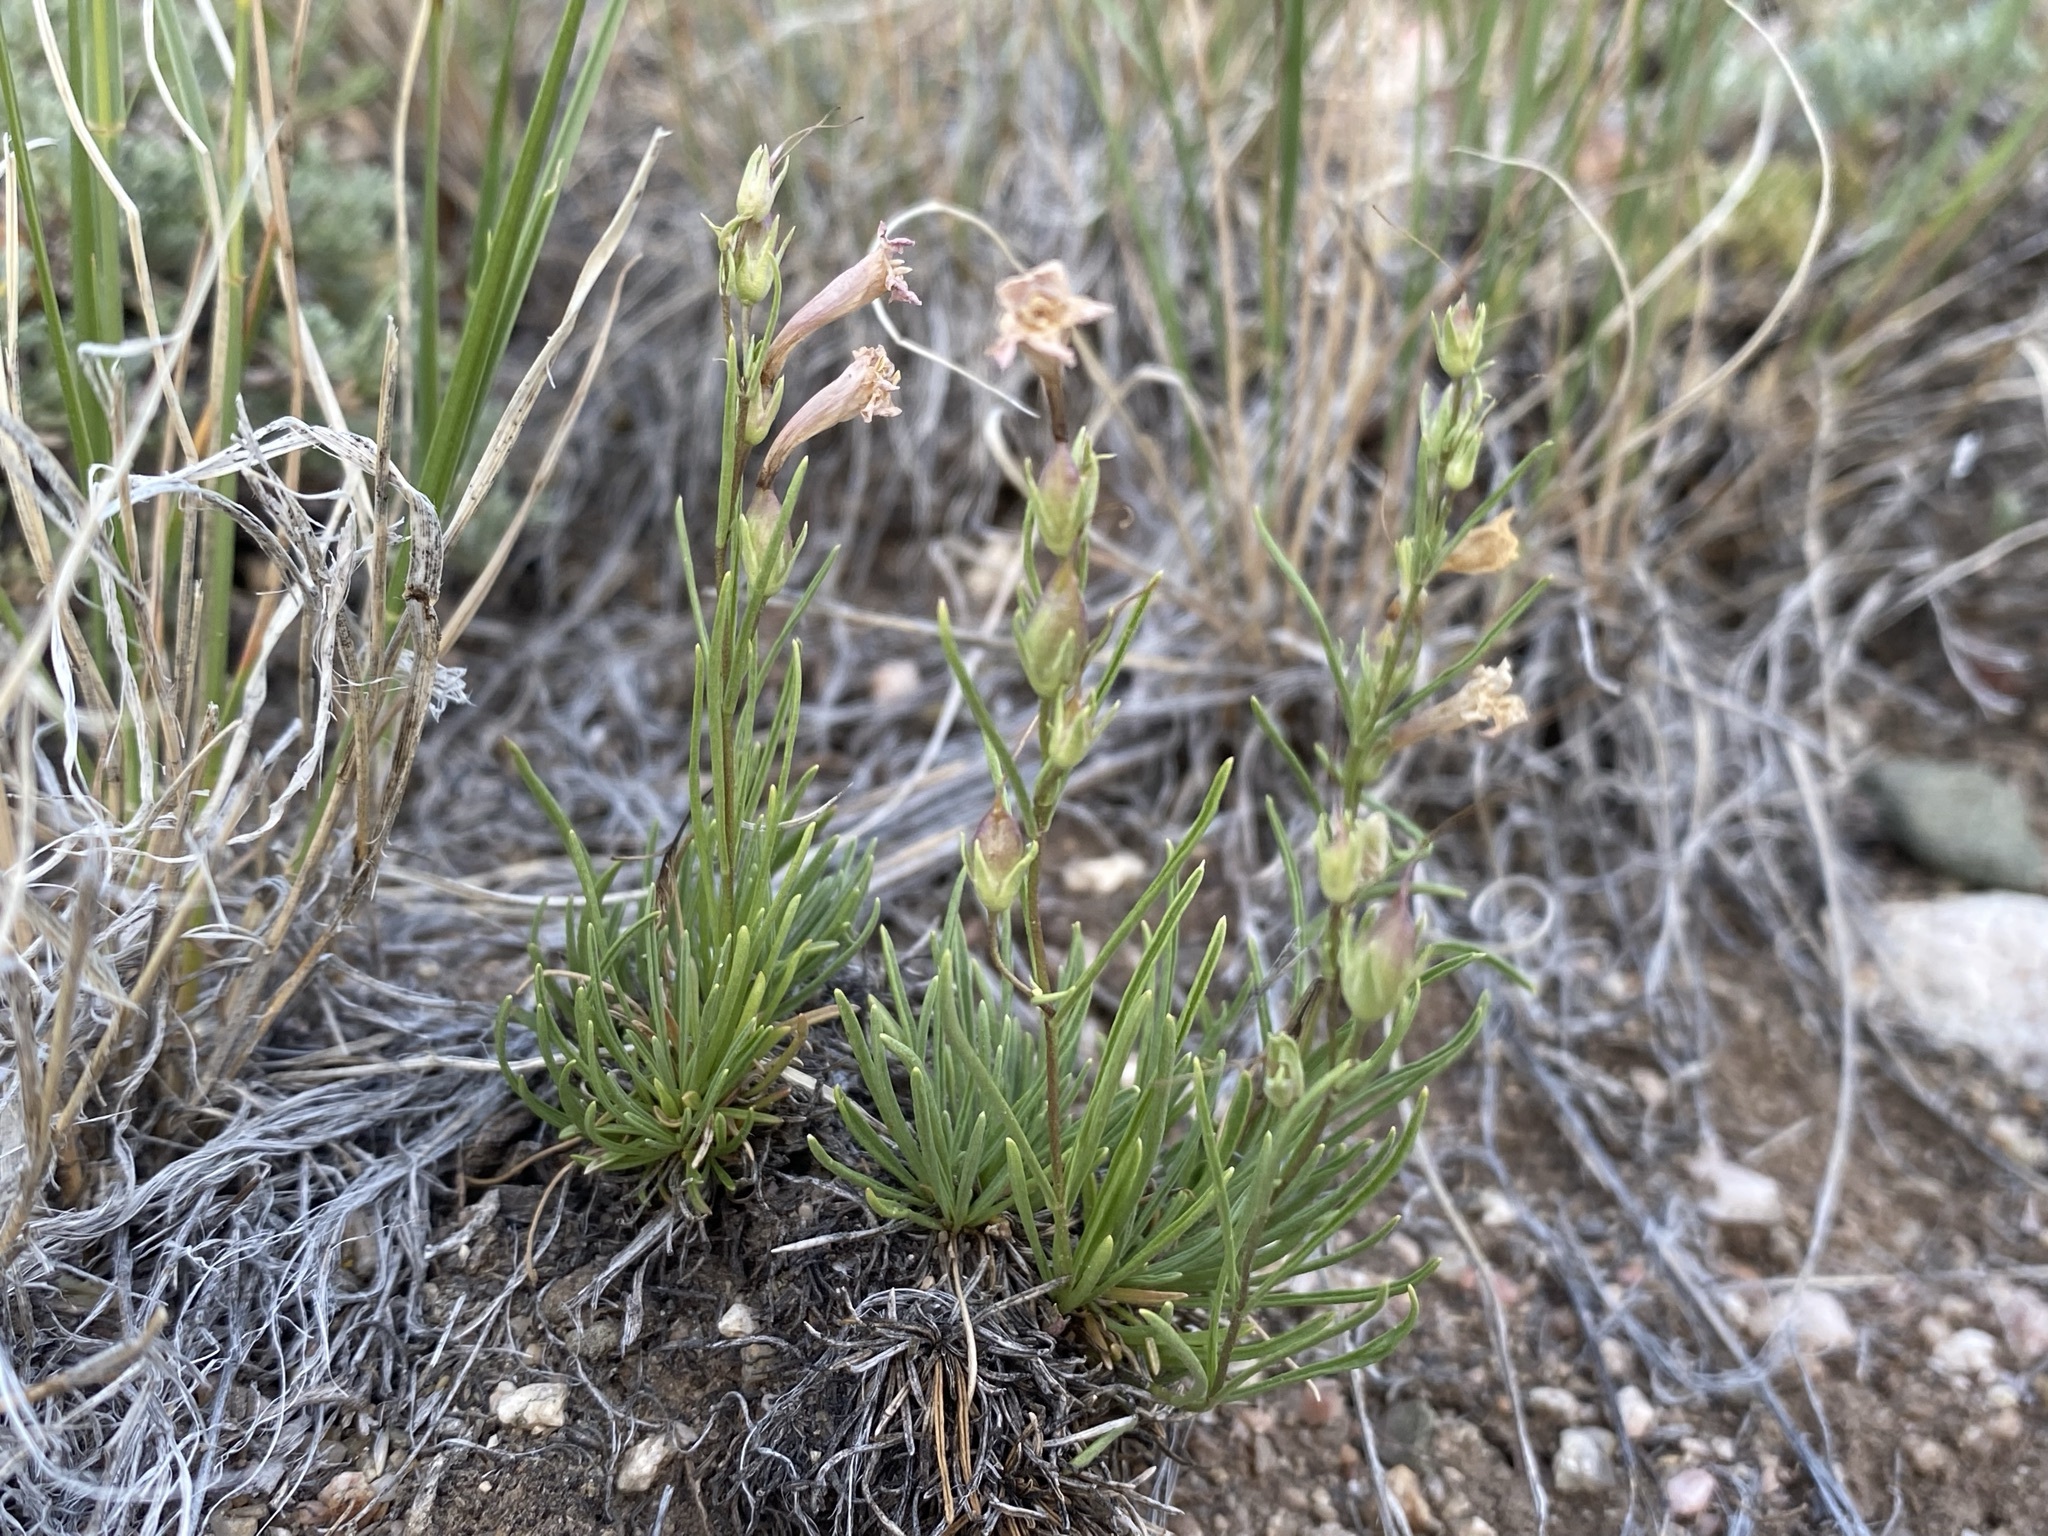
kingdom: Plantae
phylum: Tracheophyta
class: Magnoliopsida
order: Lamiales
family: Plantaginaceae
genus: Penstemon
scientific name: Penstemon laricifolius
